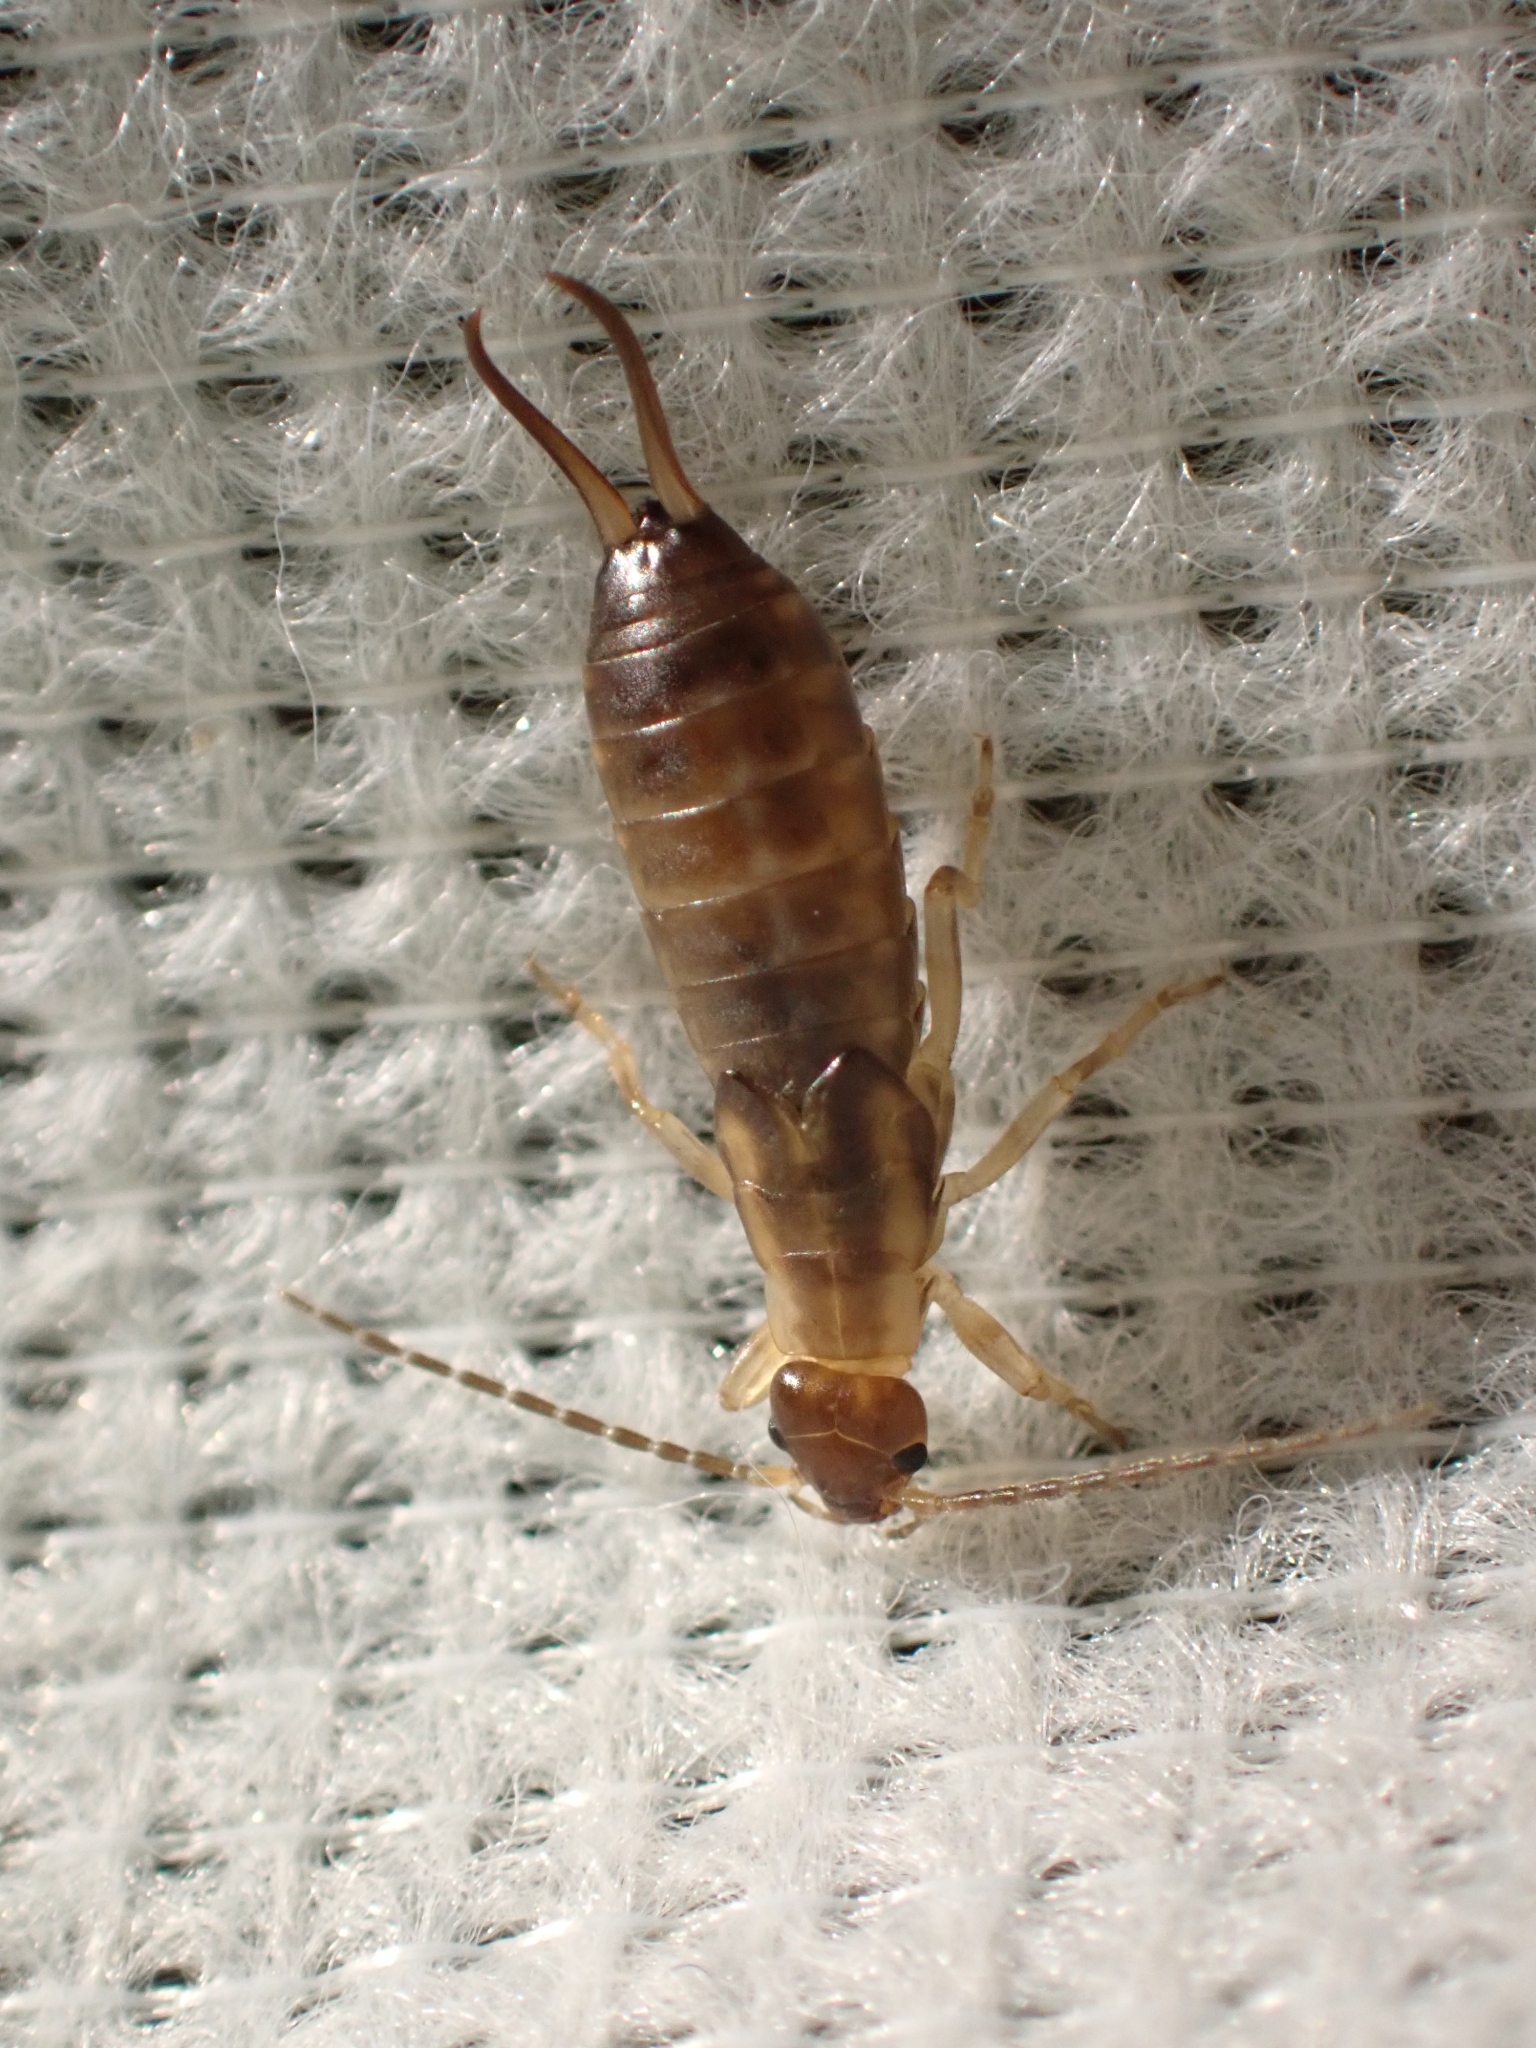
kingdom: Animalia
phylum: Arthropoda
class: Insecta
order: Dermaptera
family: Forficulidae
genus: Forficula
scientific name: Forficula
